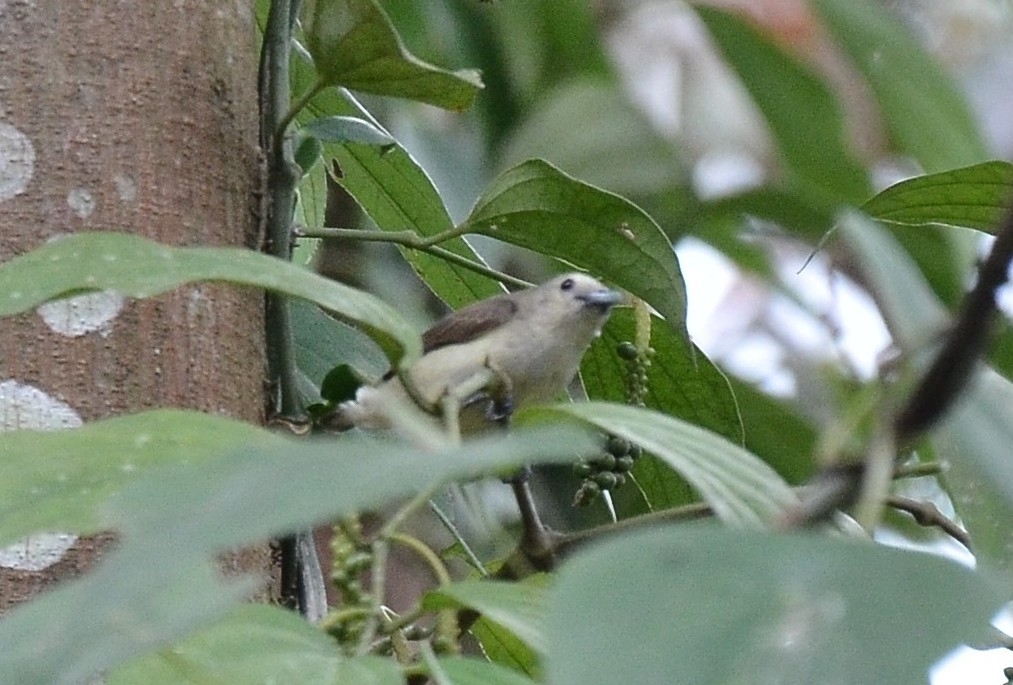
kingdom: Animalia
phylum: Chordata
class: Aves
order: Passeriformes
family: Dicaeidae
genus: Dicaeum
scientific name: Dicaeum concolor
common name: Nilgiri flowerpecker
